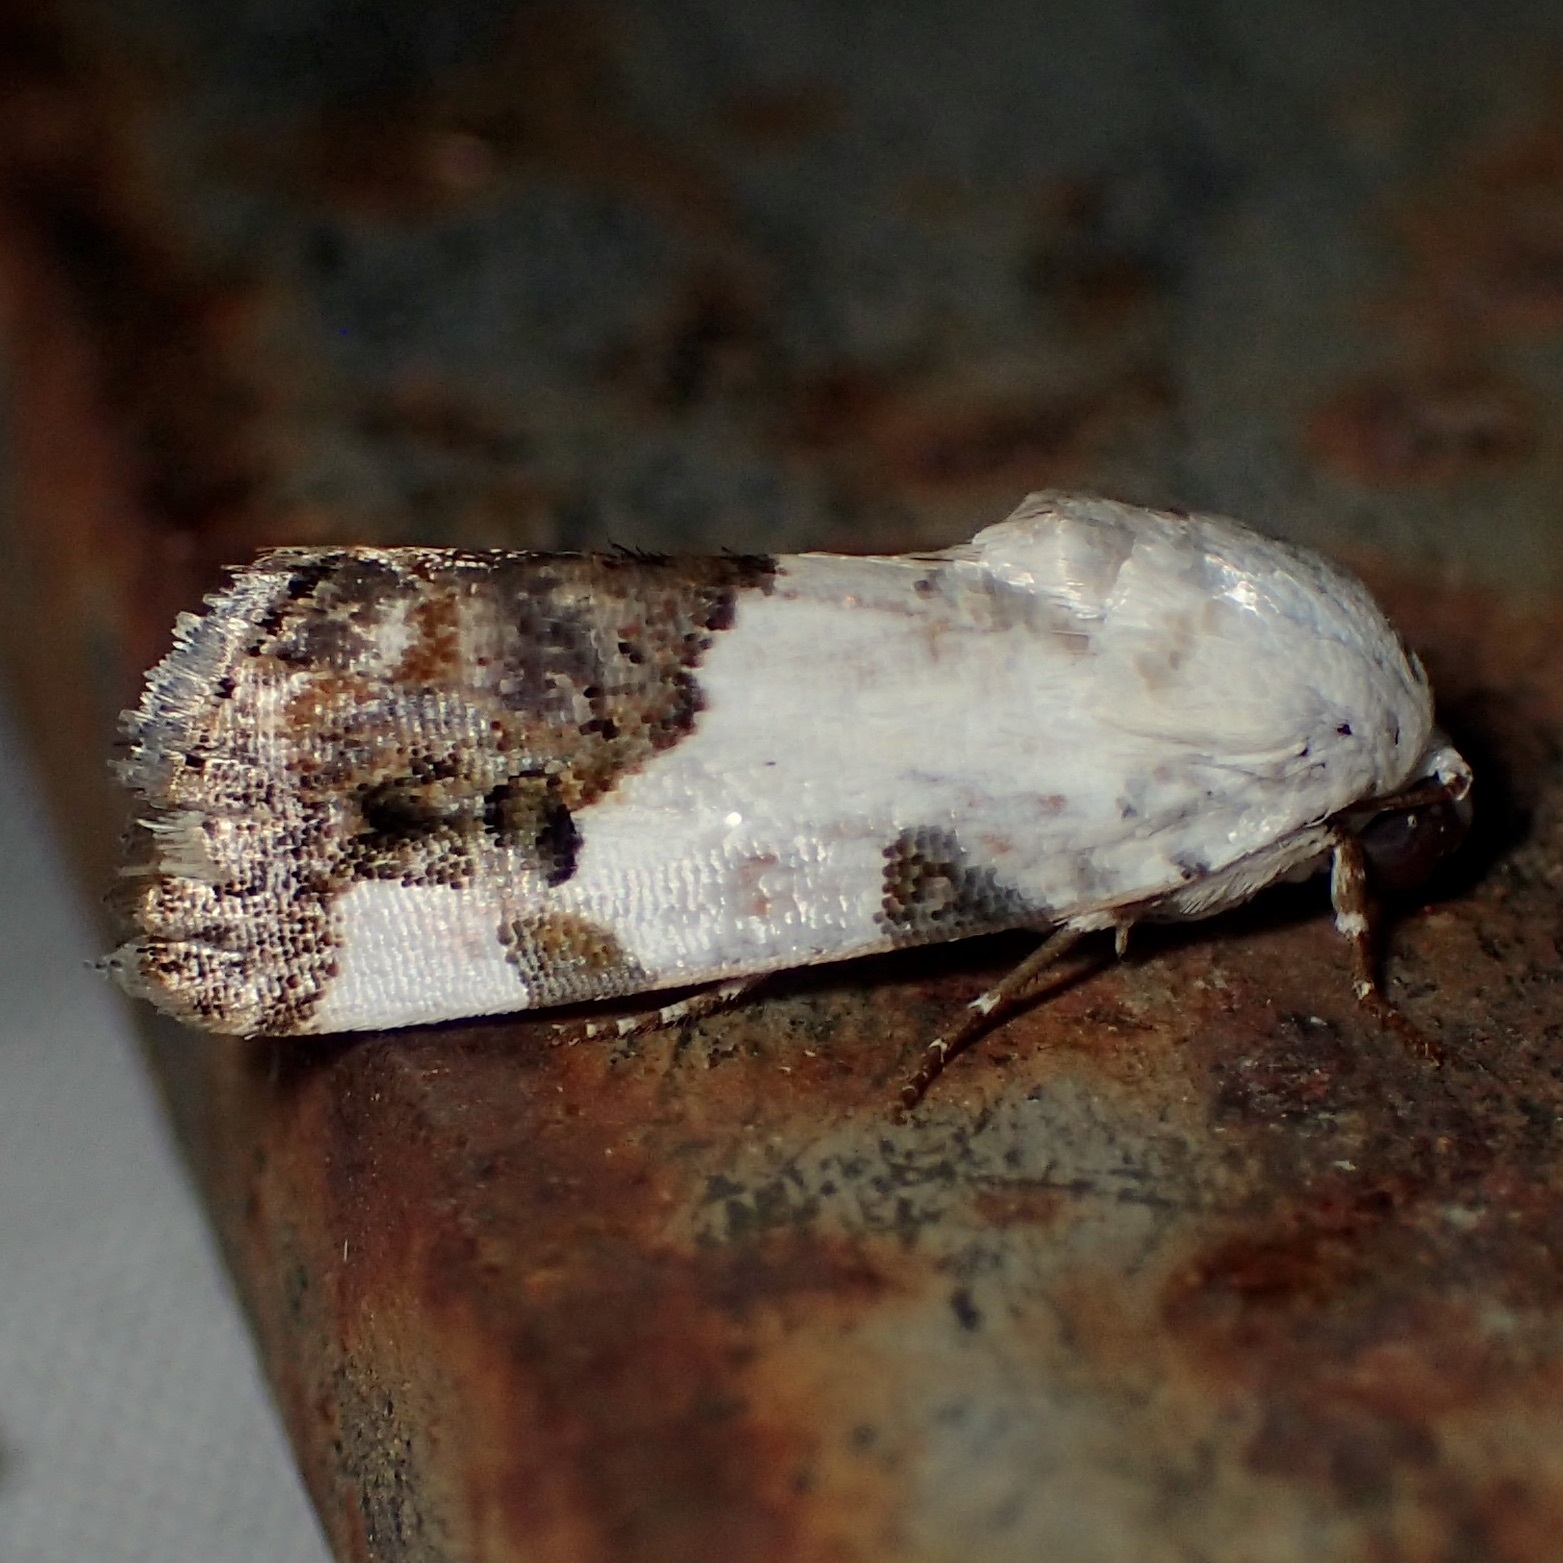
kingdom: Animalia
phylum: Arthropoda
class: Insecta
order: Lepidoptera
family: Noctuidae
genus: Acontia
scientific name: Acontia quadriplaga
